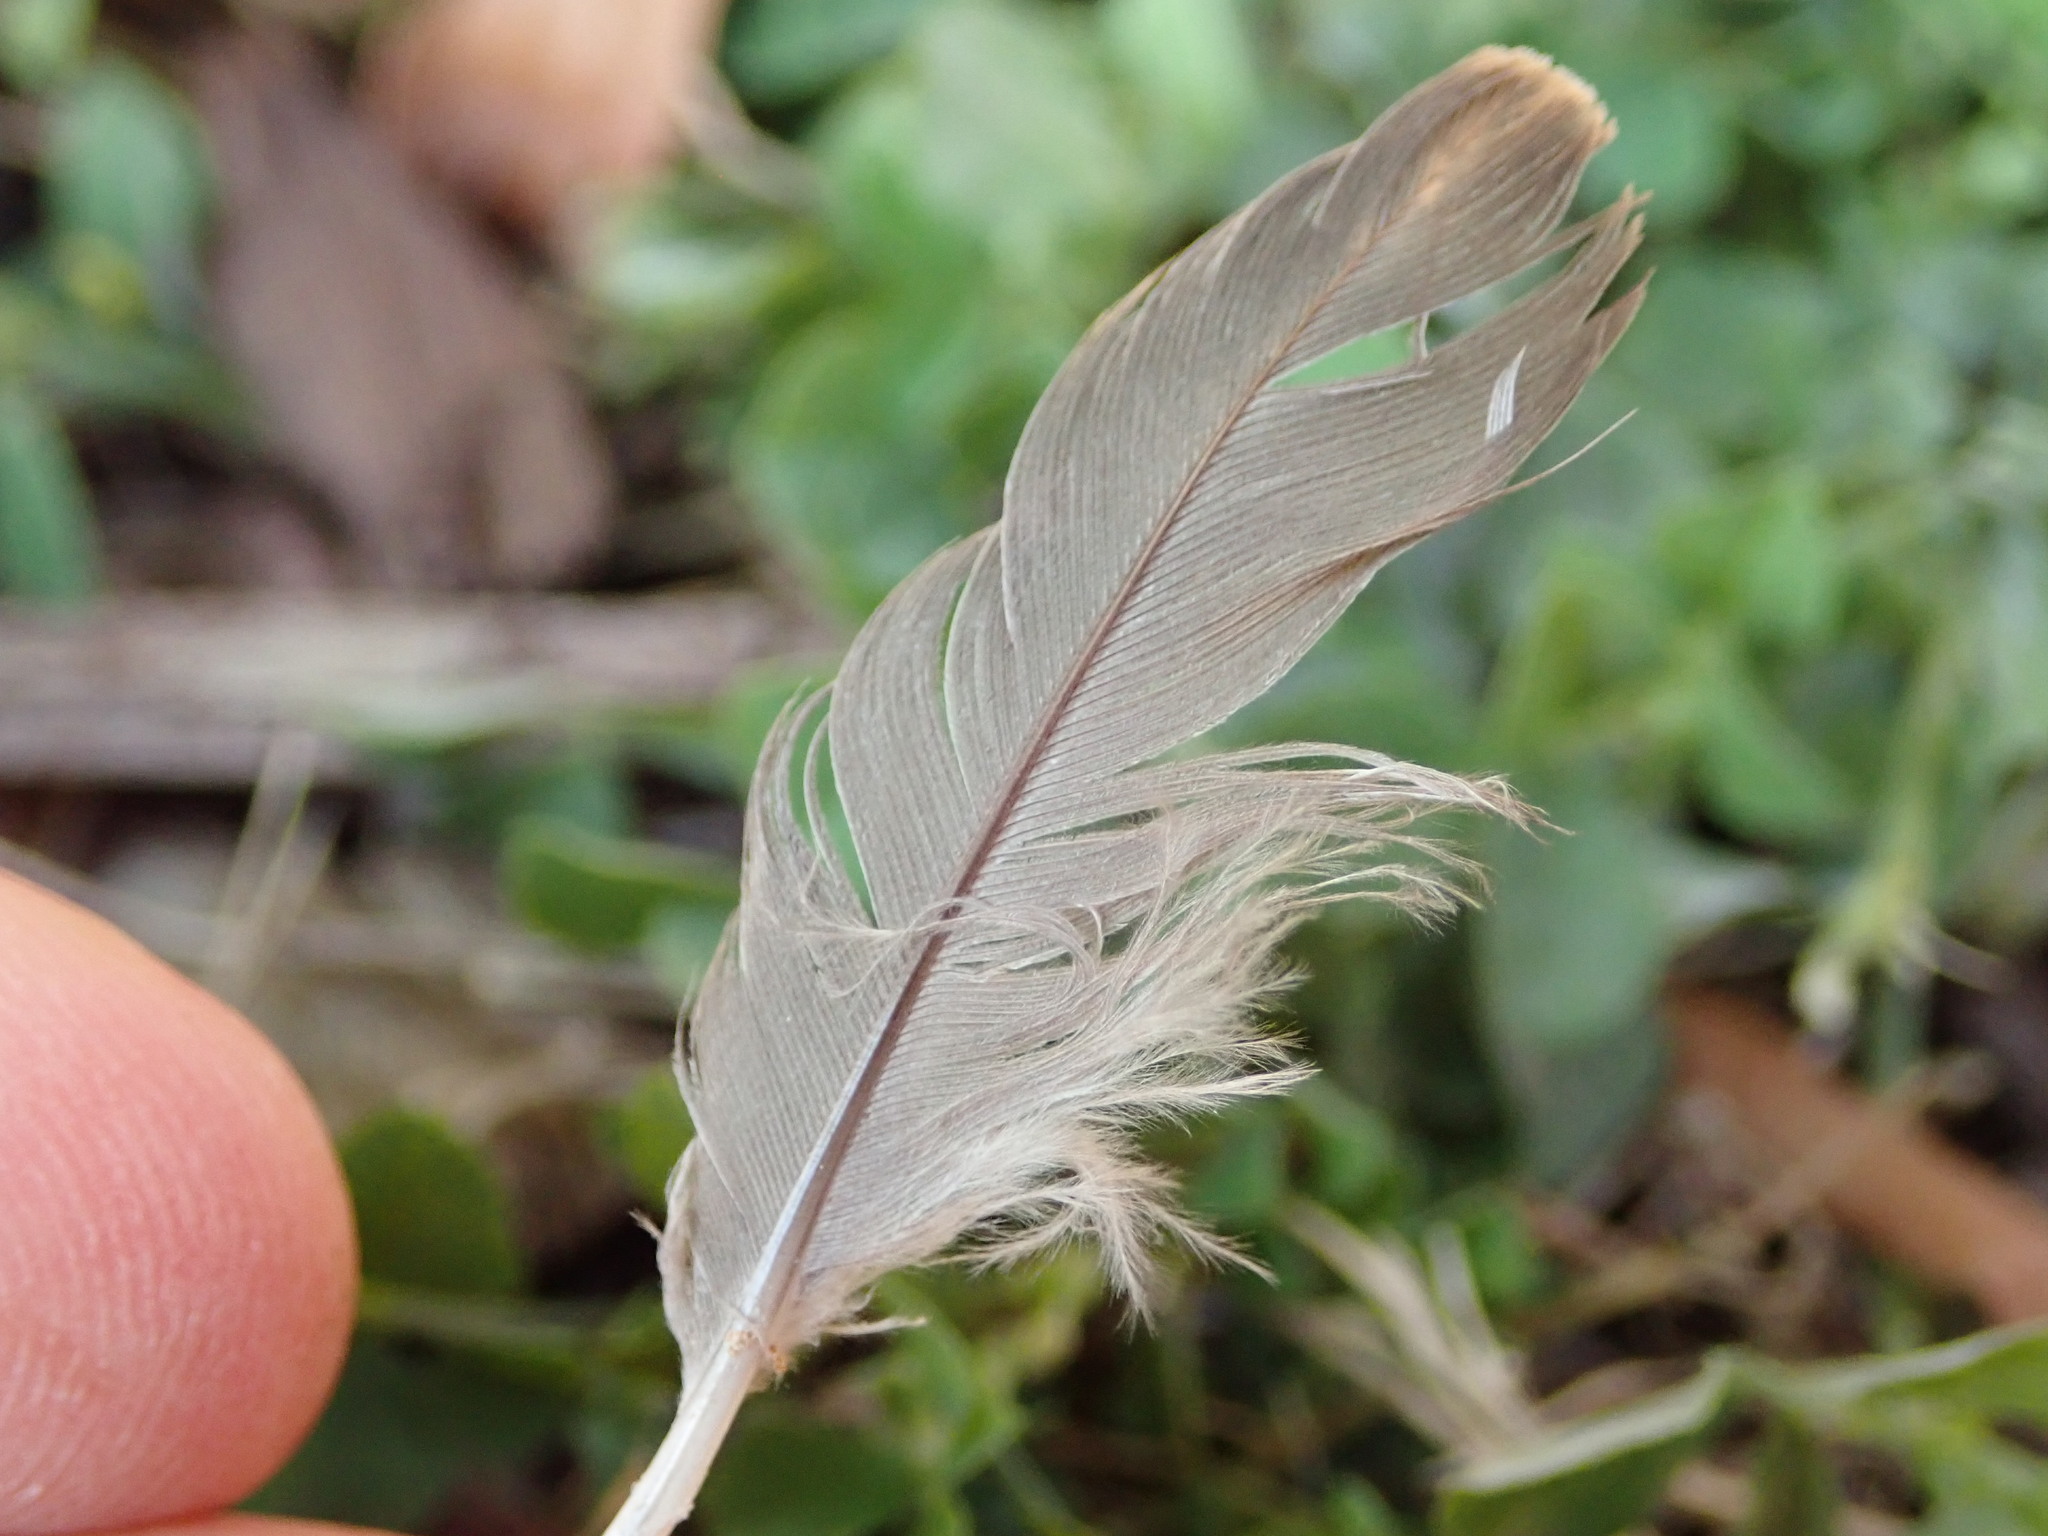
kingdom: Animalia
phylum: Chordata
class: Aves
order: Columbiformes
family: Columbidae
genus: Zenaida
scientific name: Zenaida macroura
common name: Mourning dove
